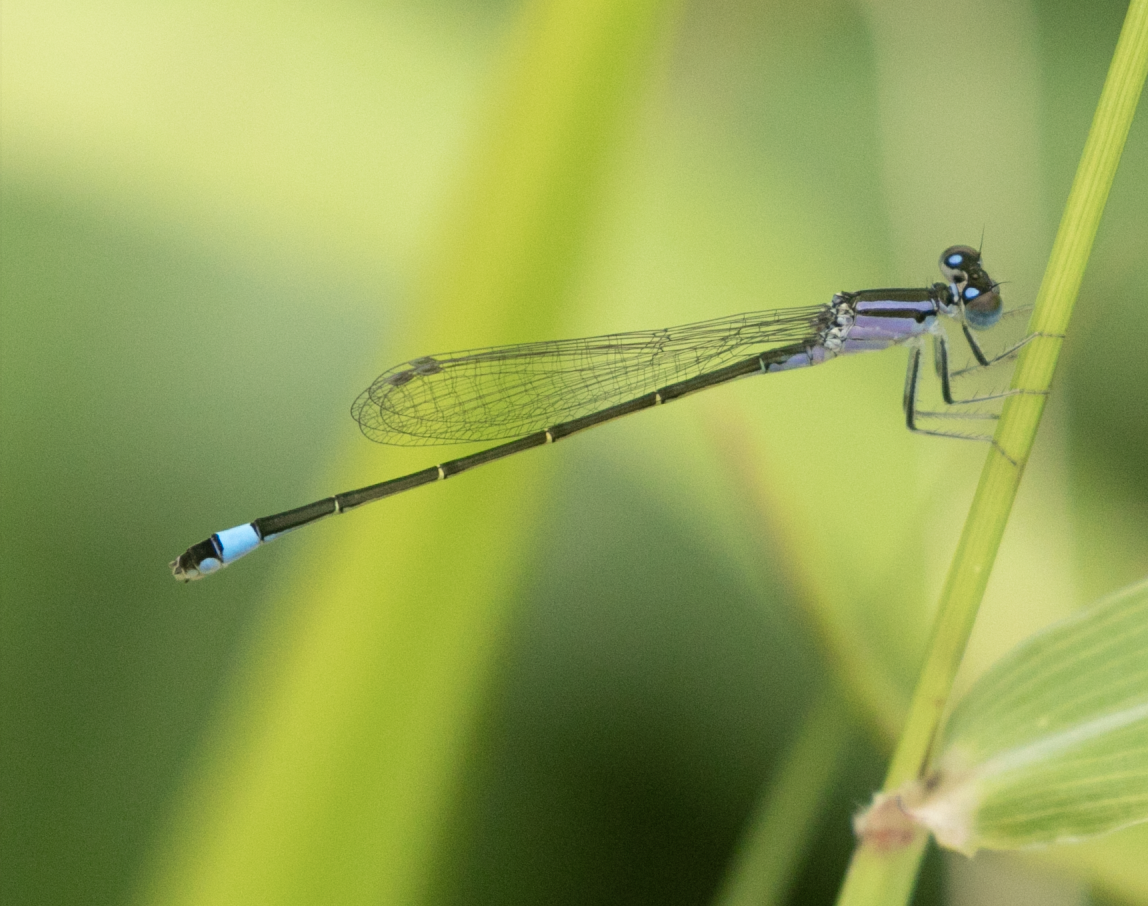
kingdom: Animalia
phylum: Arthropoda
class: Insecta
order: Odonata
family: Coenagrionidae
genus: Ischnura
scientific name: Ischnura elegans
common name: Blue-tailed damselfly
